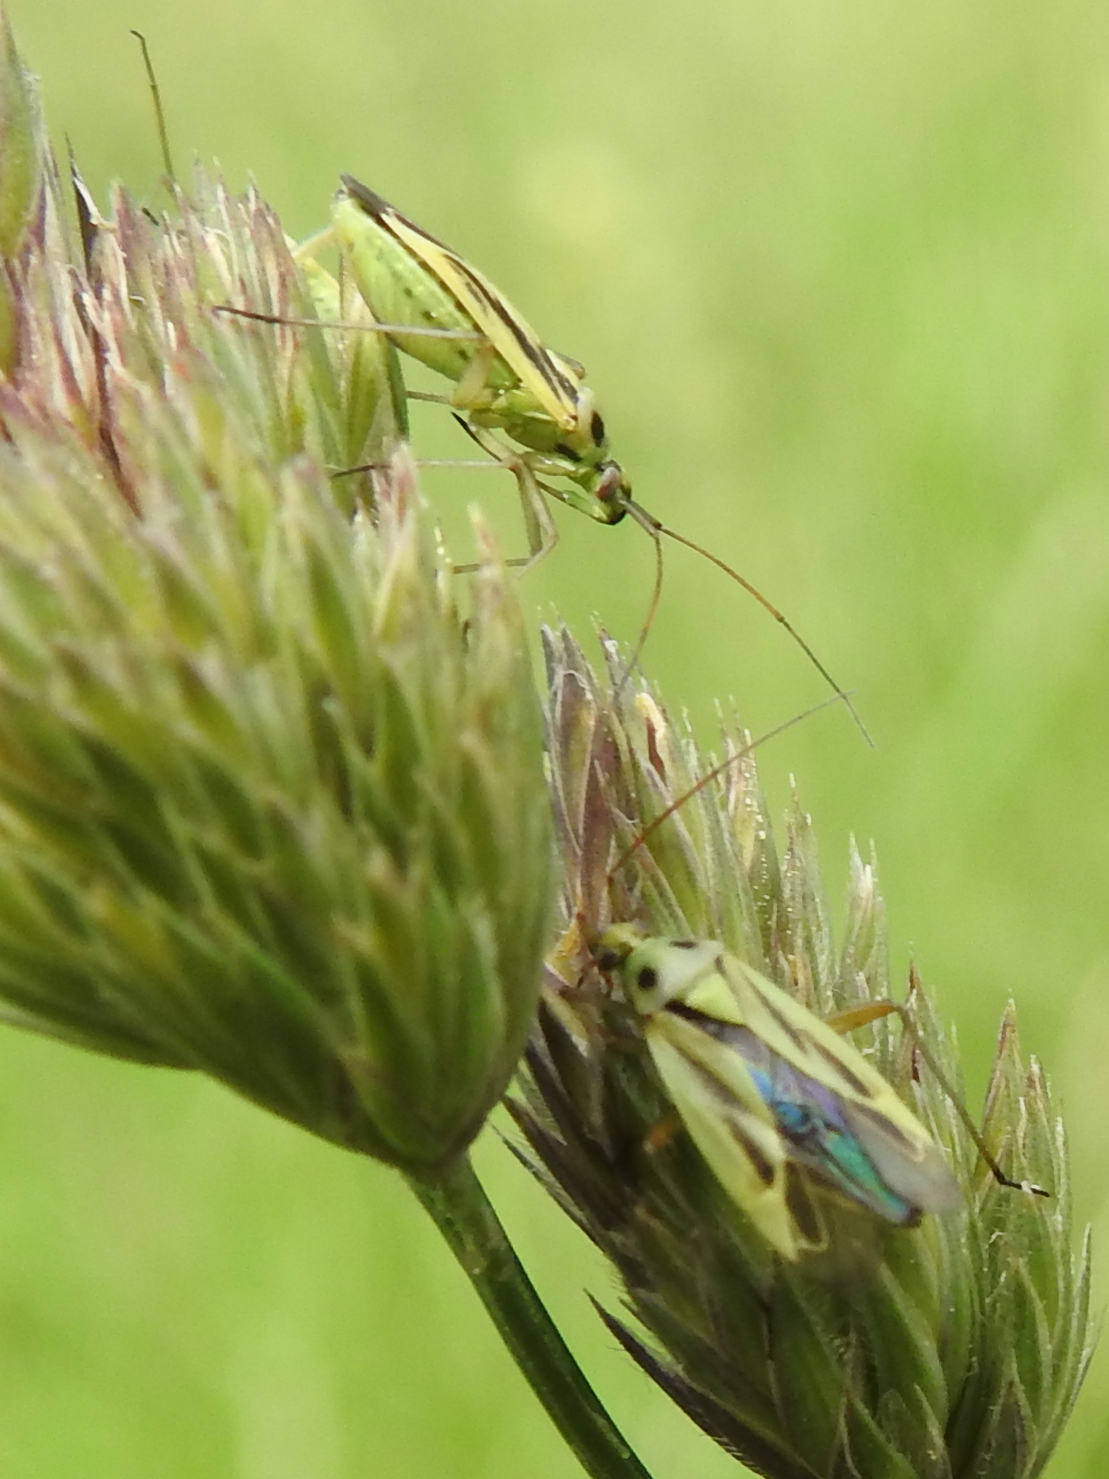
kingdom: Animalia
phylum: Arthropoda
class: Insecta
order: Hemiptera
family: Miridae
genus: Stenotus
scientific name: Stenotus binotatus
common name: Plant bug
